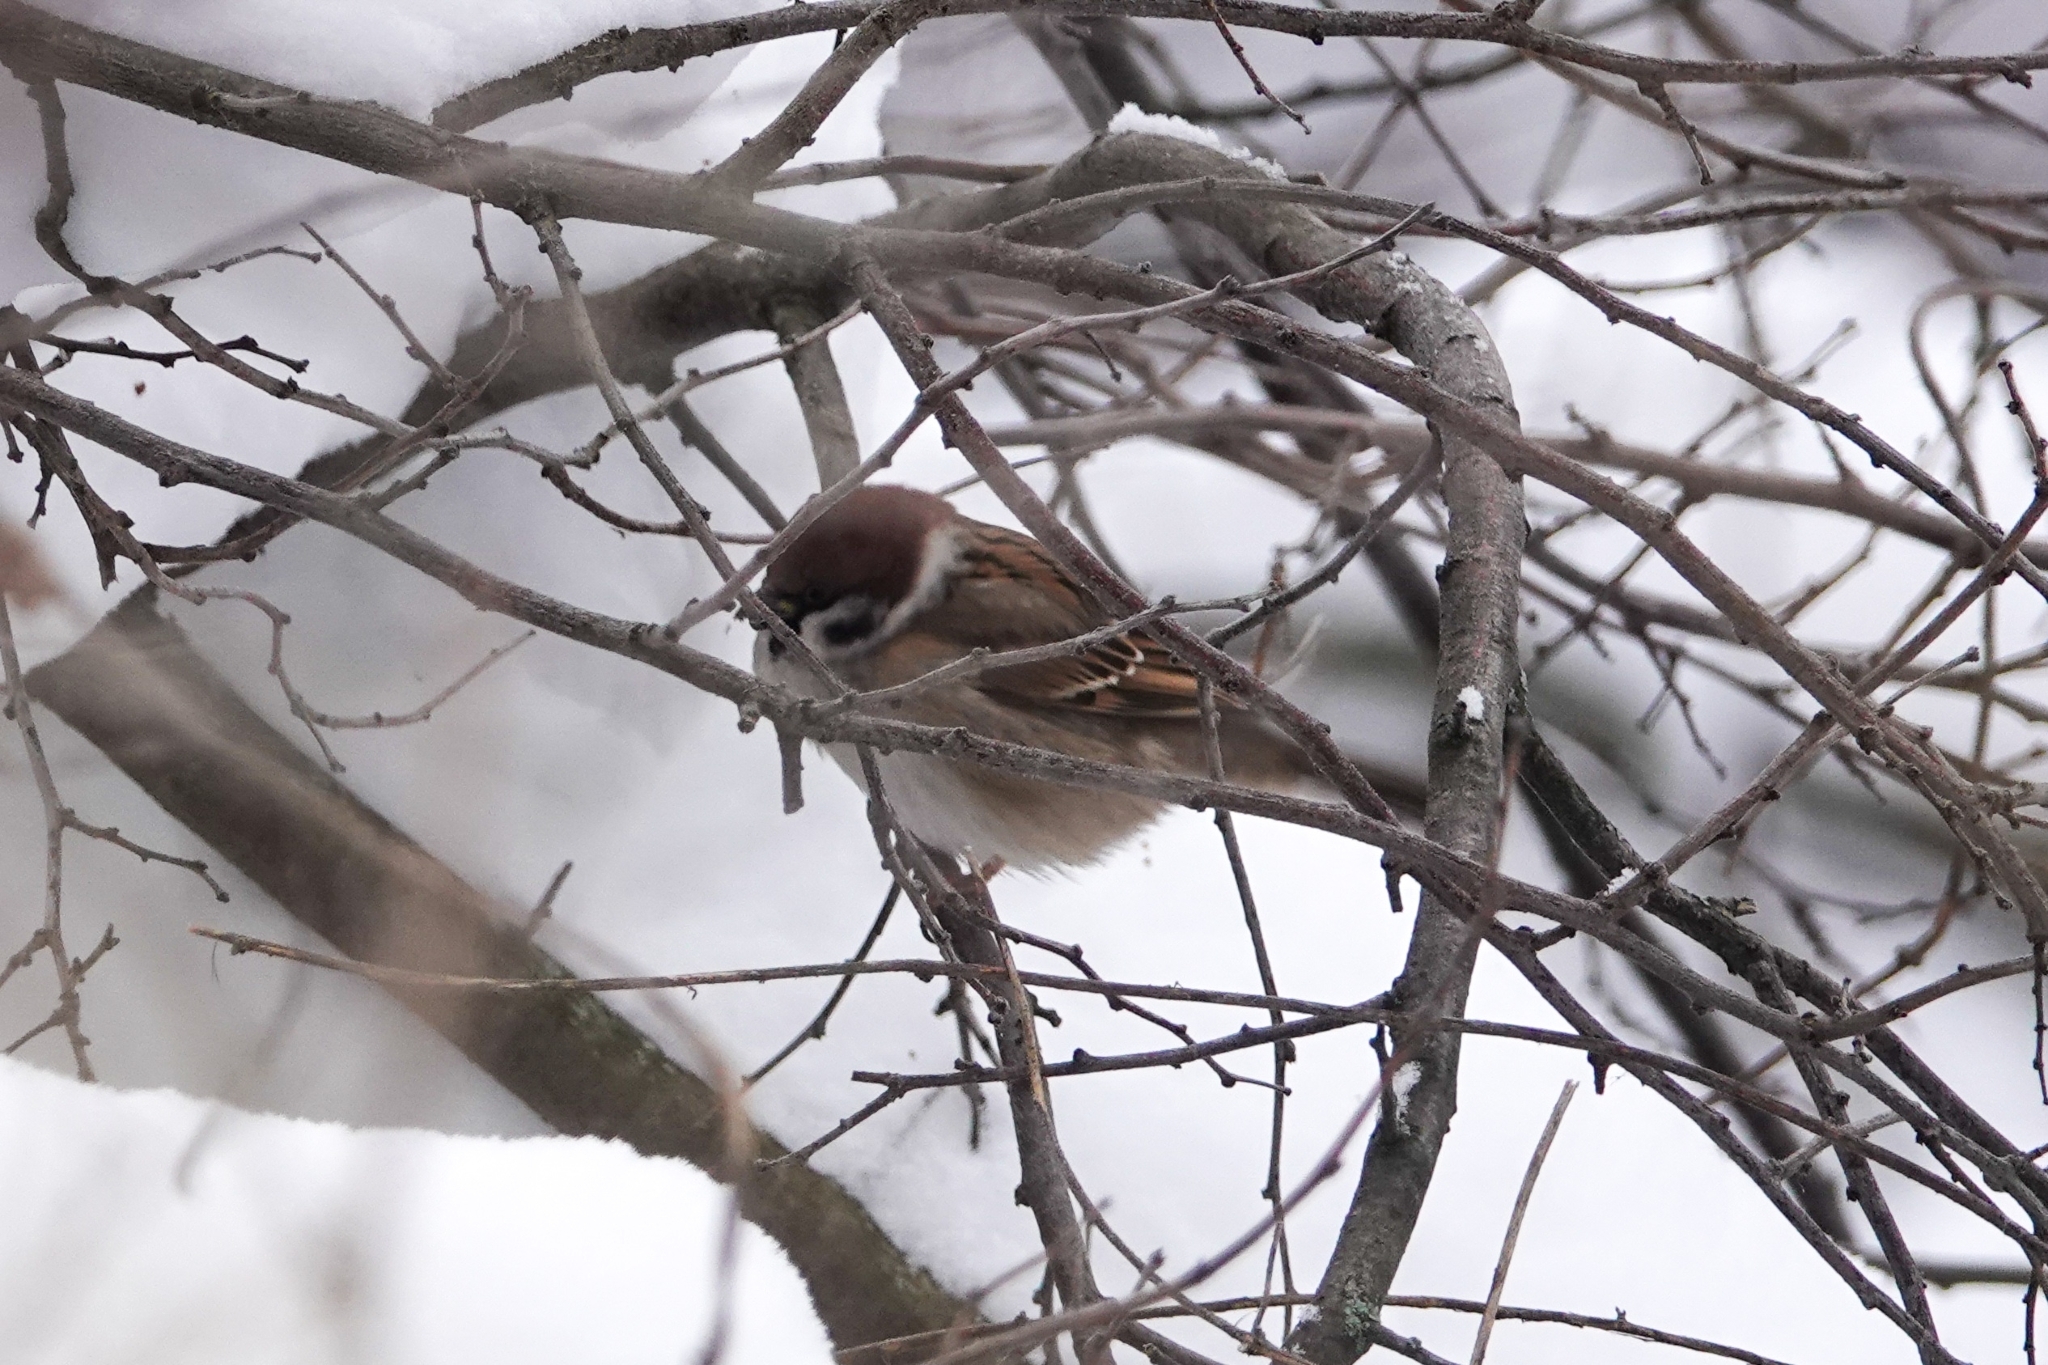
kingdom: Animalia
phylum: Chordata
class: Aves
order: Passeriformes
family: Passeridae
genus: Passer
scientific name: Passer montanus
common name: Eurasian tree sparrow
